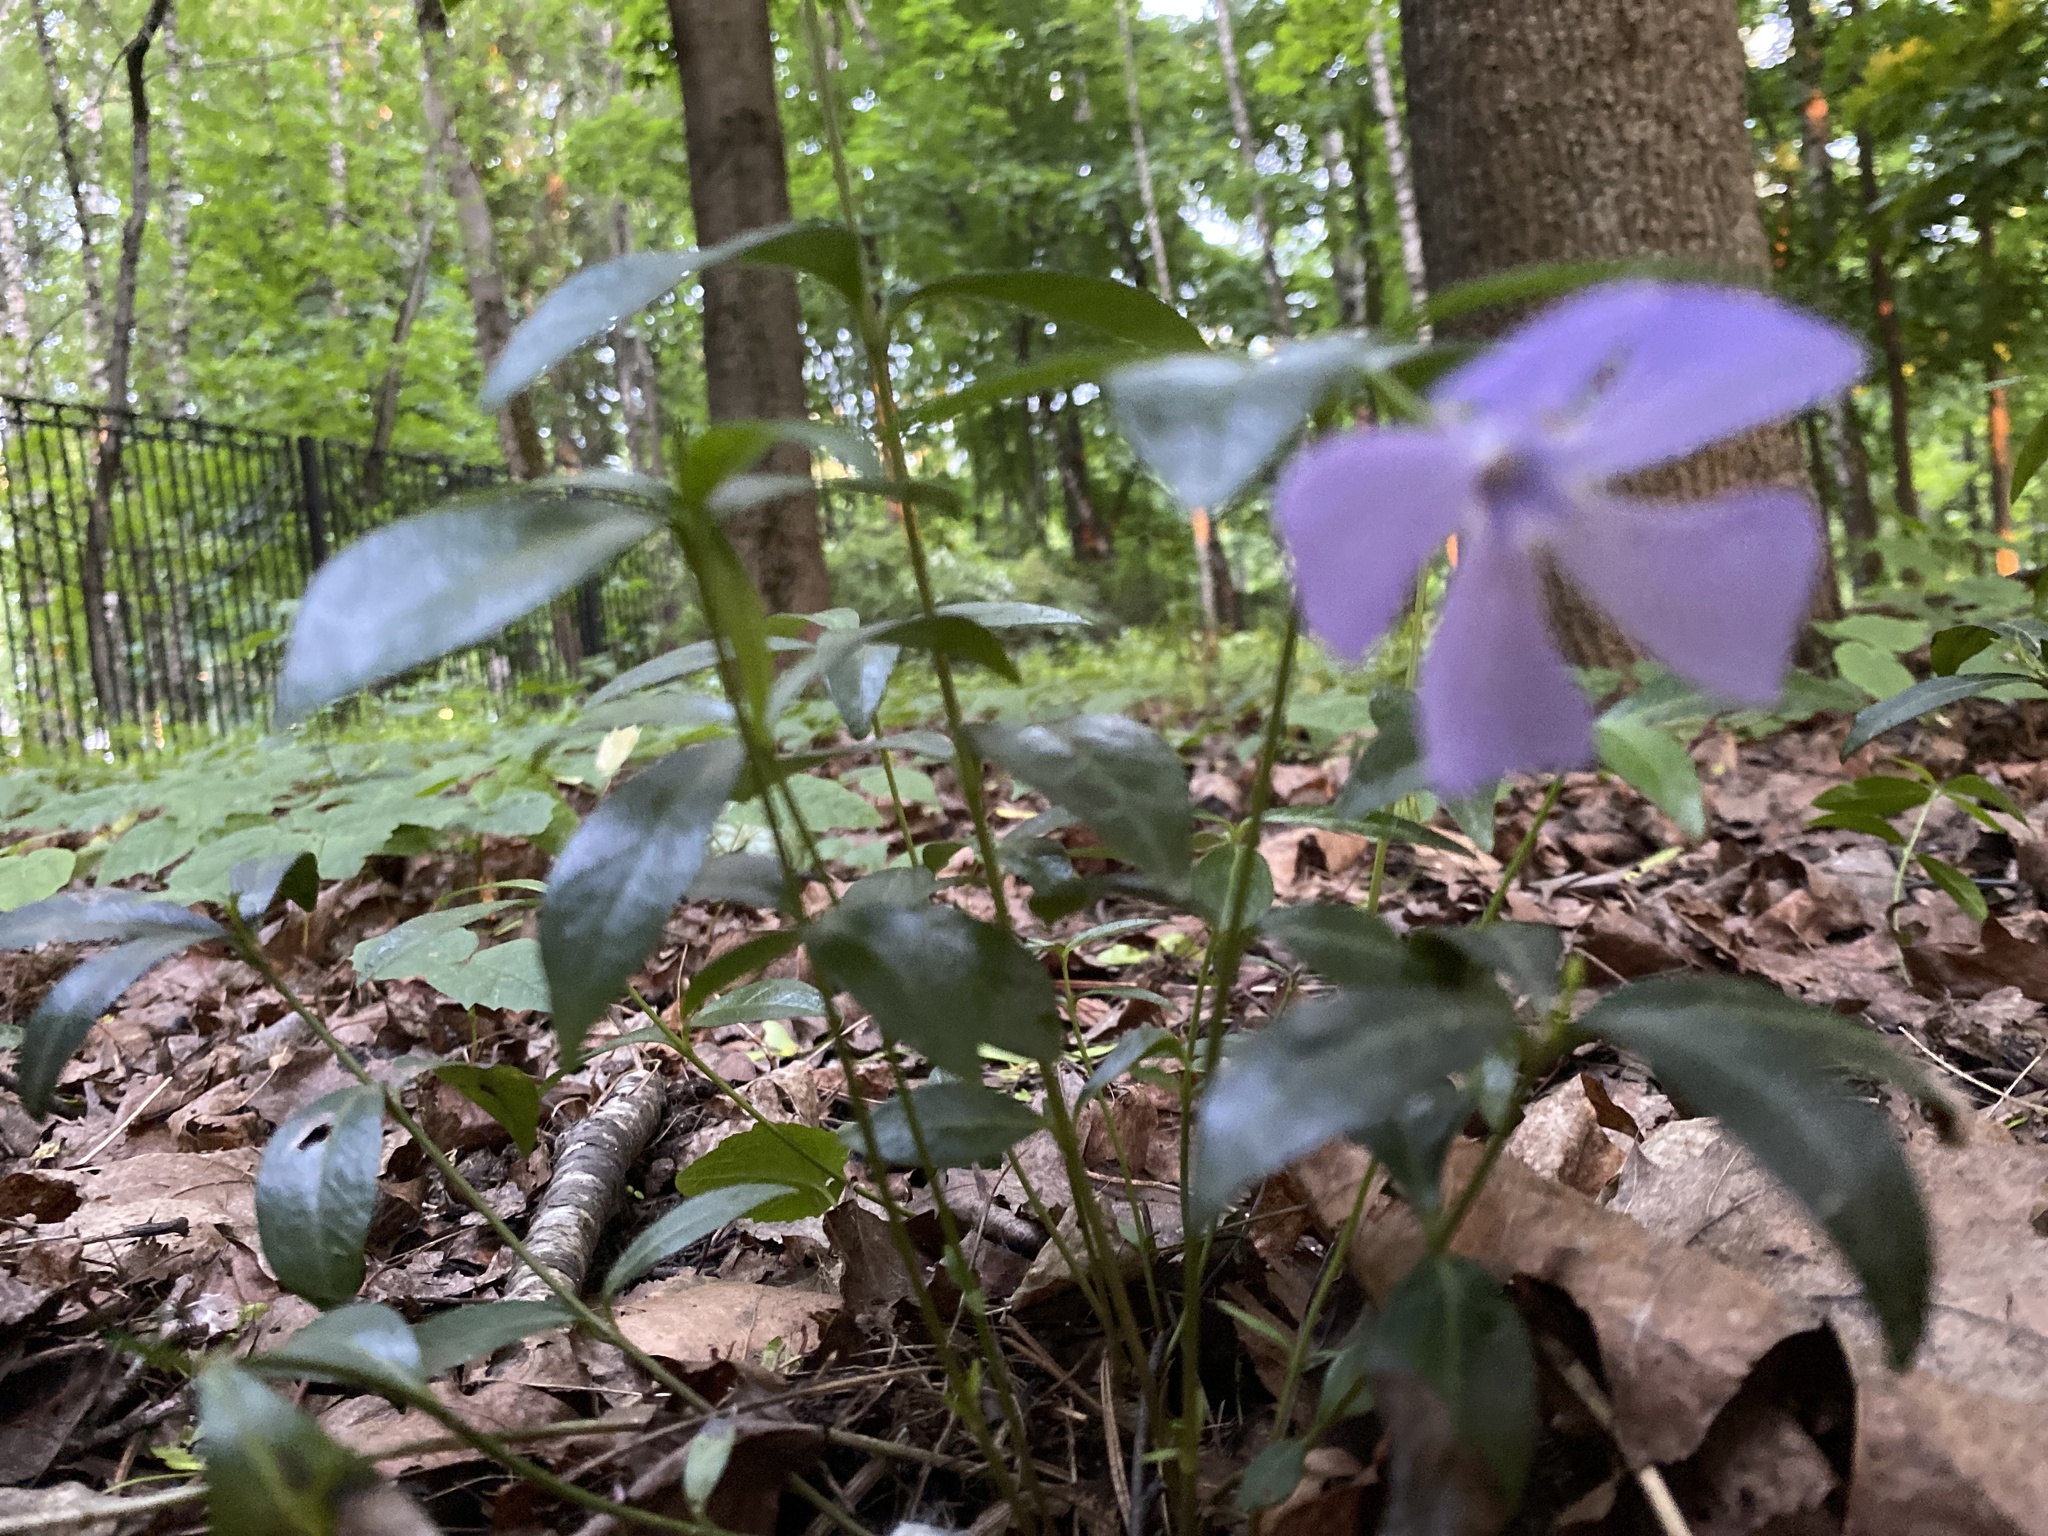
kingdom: Plantae
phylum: Tracheophyta
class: Magnoliopsida
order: Gentianales
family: Apocynaceae
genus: Vinca
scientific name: Vinca minor
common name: Lesser periwinkle
